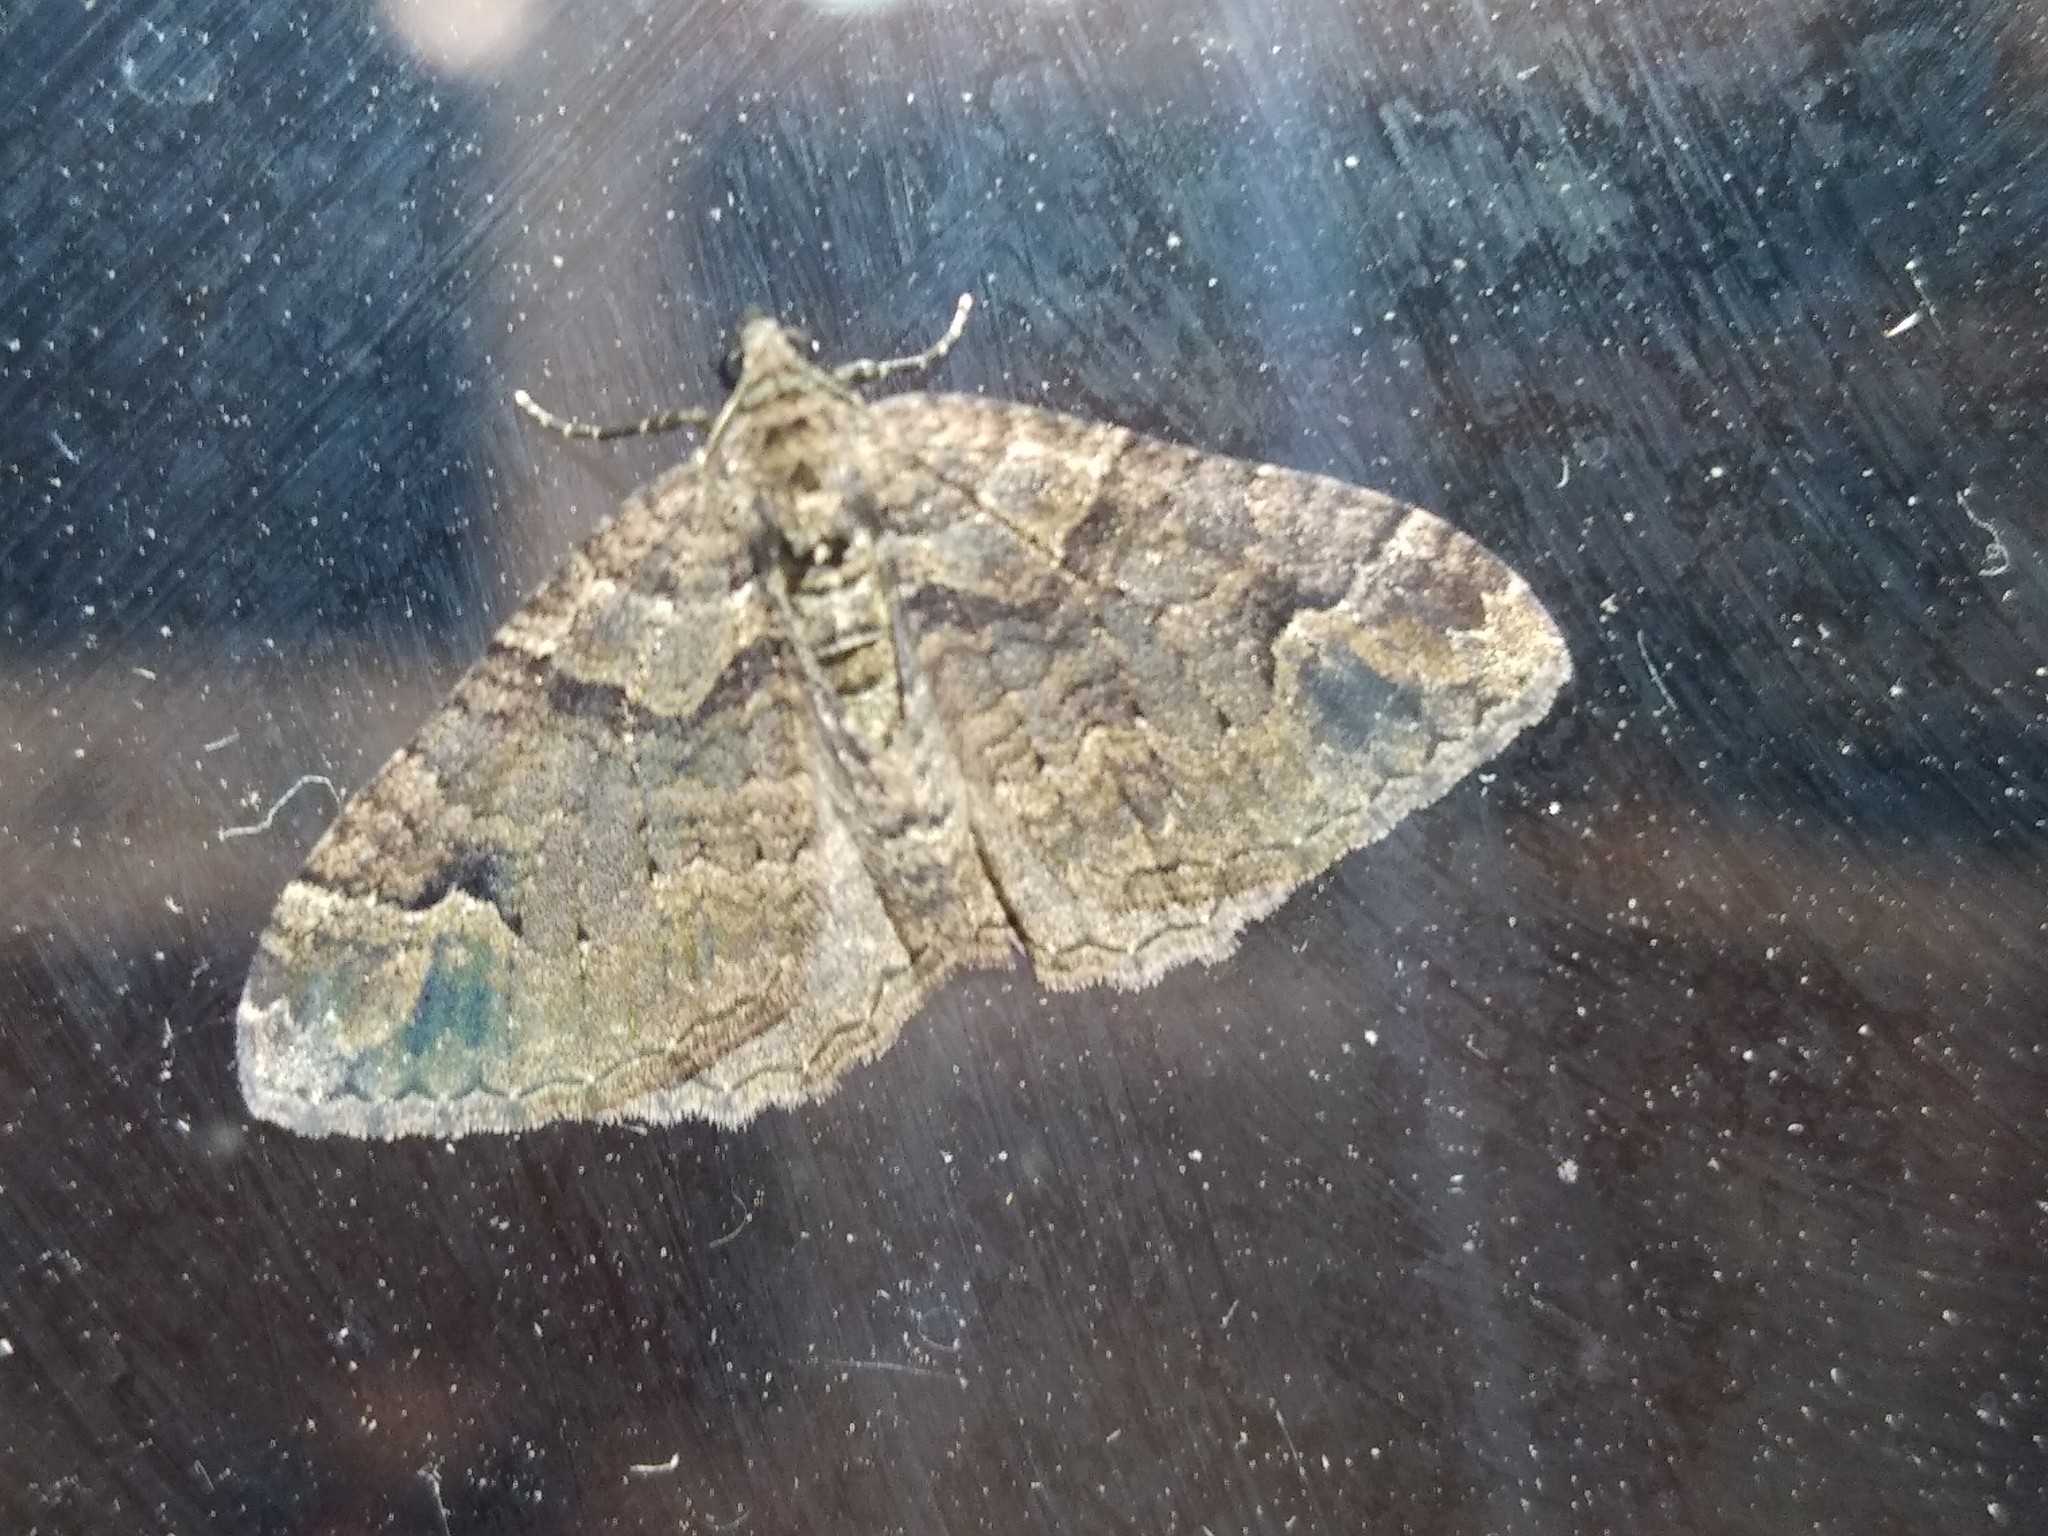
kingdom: Animalia
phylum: Arthropoda
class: Insecta
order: Lepidoptera
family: Geometridae
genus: Catarhoe
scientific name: Catarhoe basochesiata
